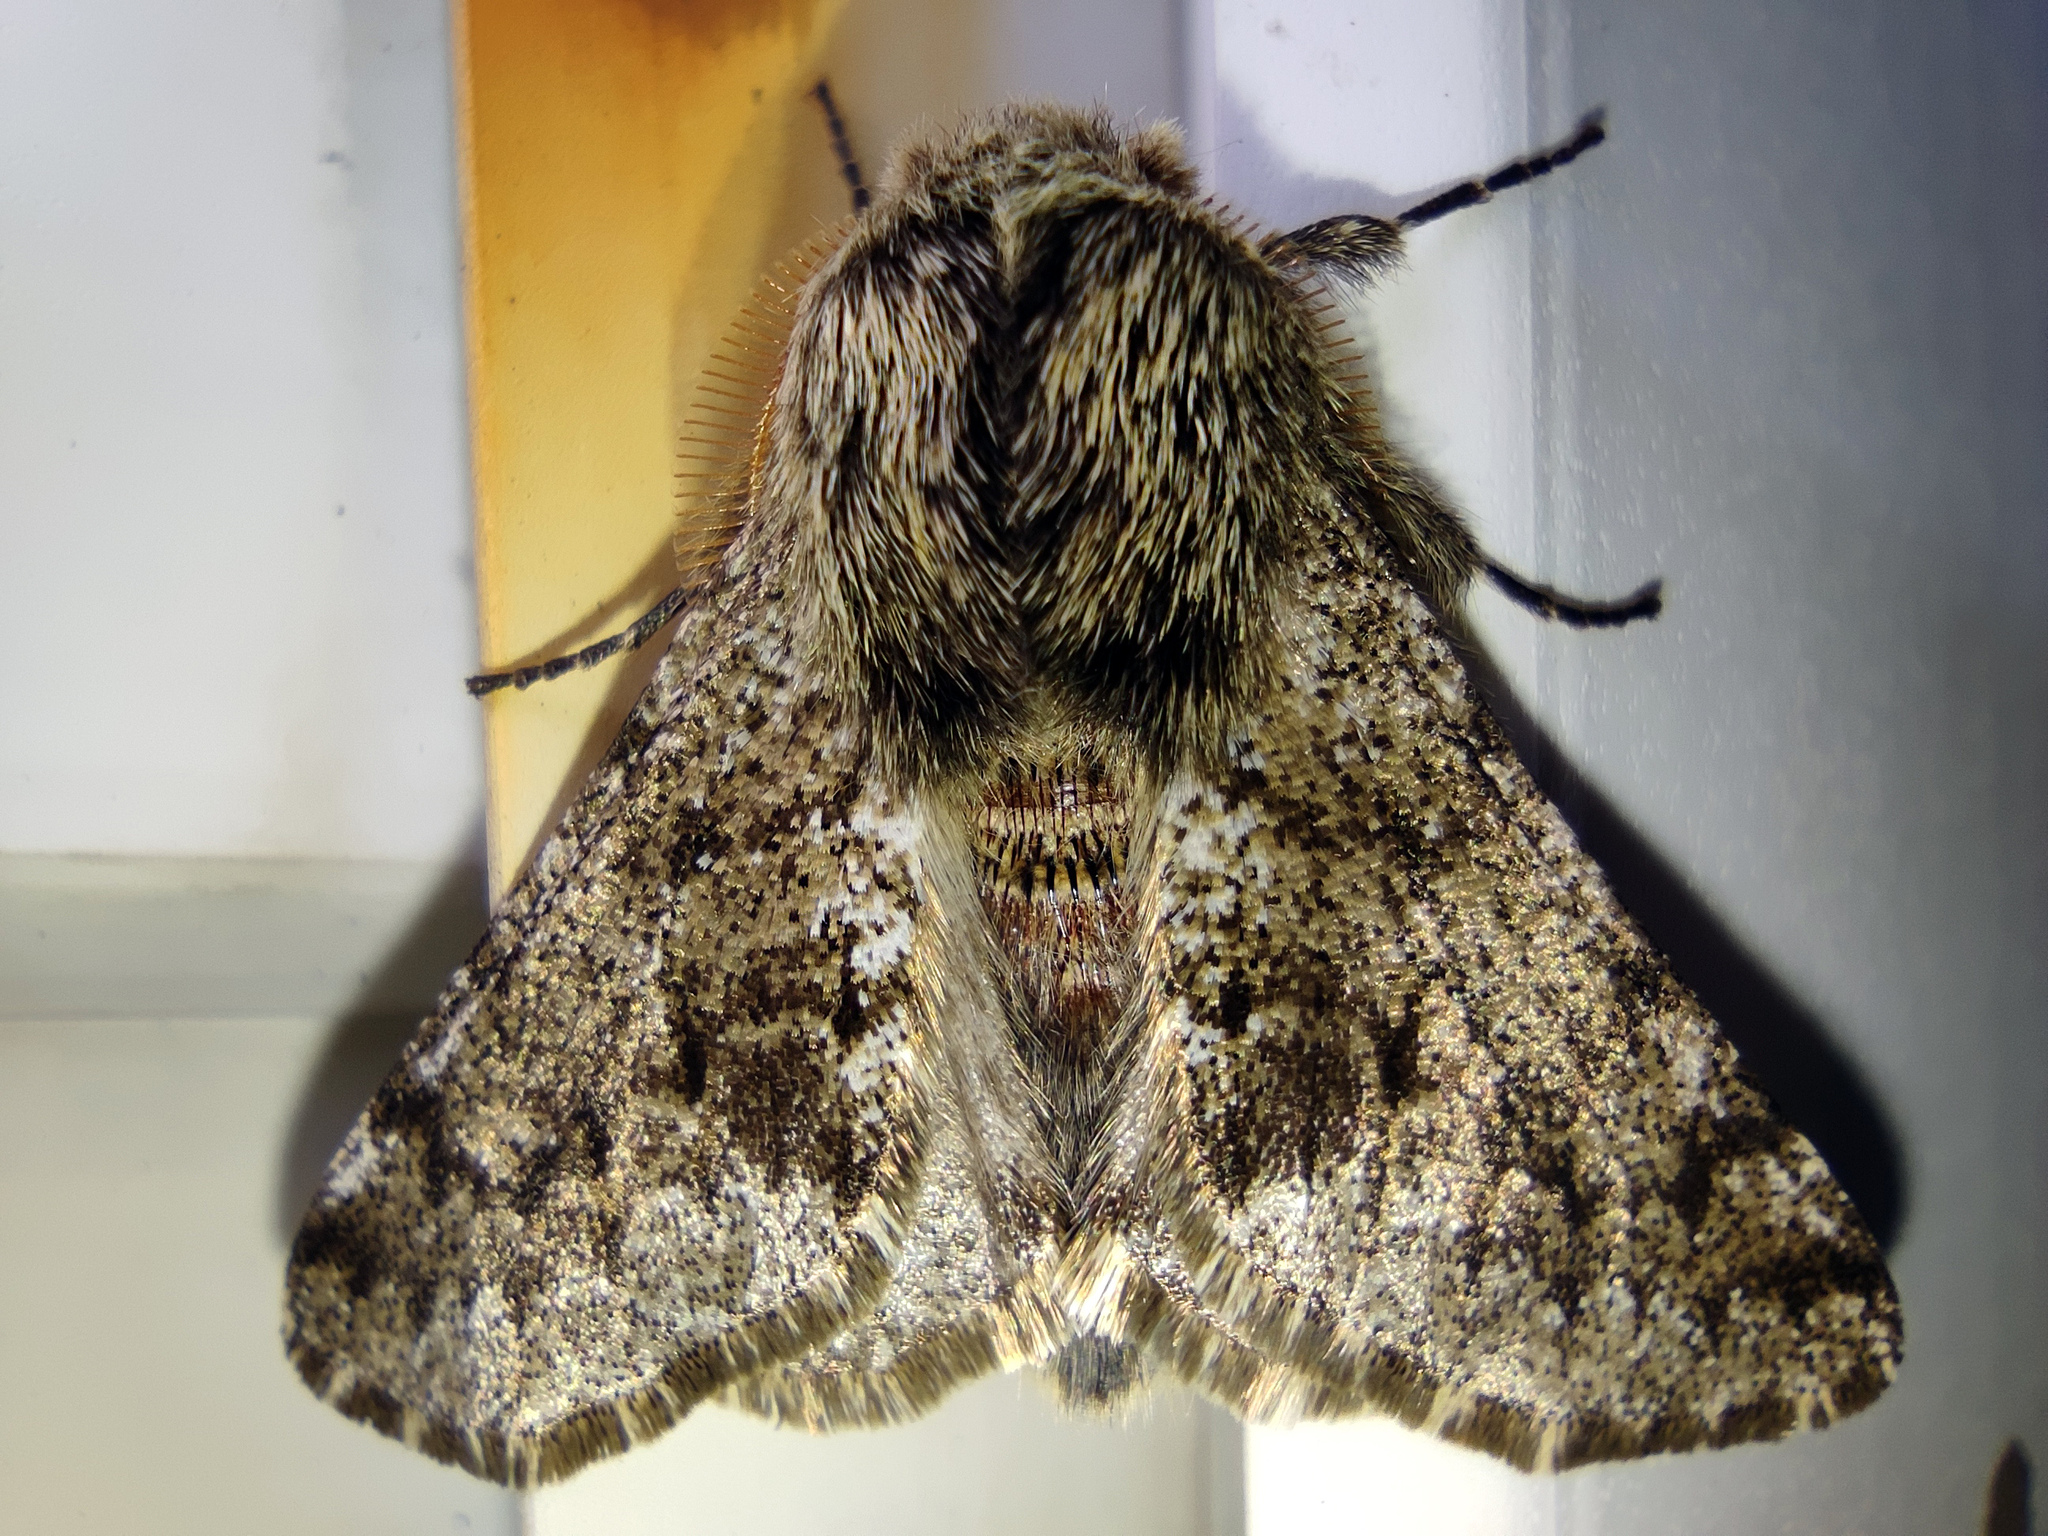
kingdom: Animalia
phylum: Arthropoda
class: Insecta
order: Lepidoptera
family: Geometridae
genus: Apocheima
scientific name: Apocheima hispidaria
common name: Small brindled beauty
